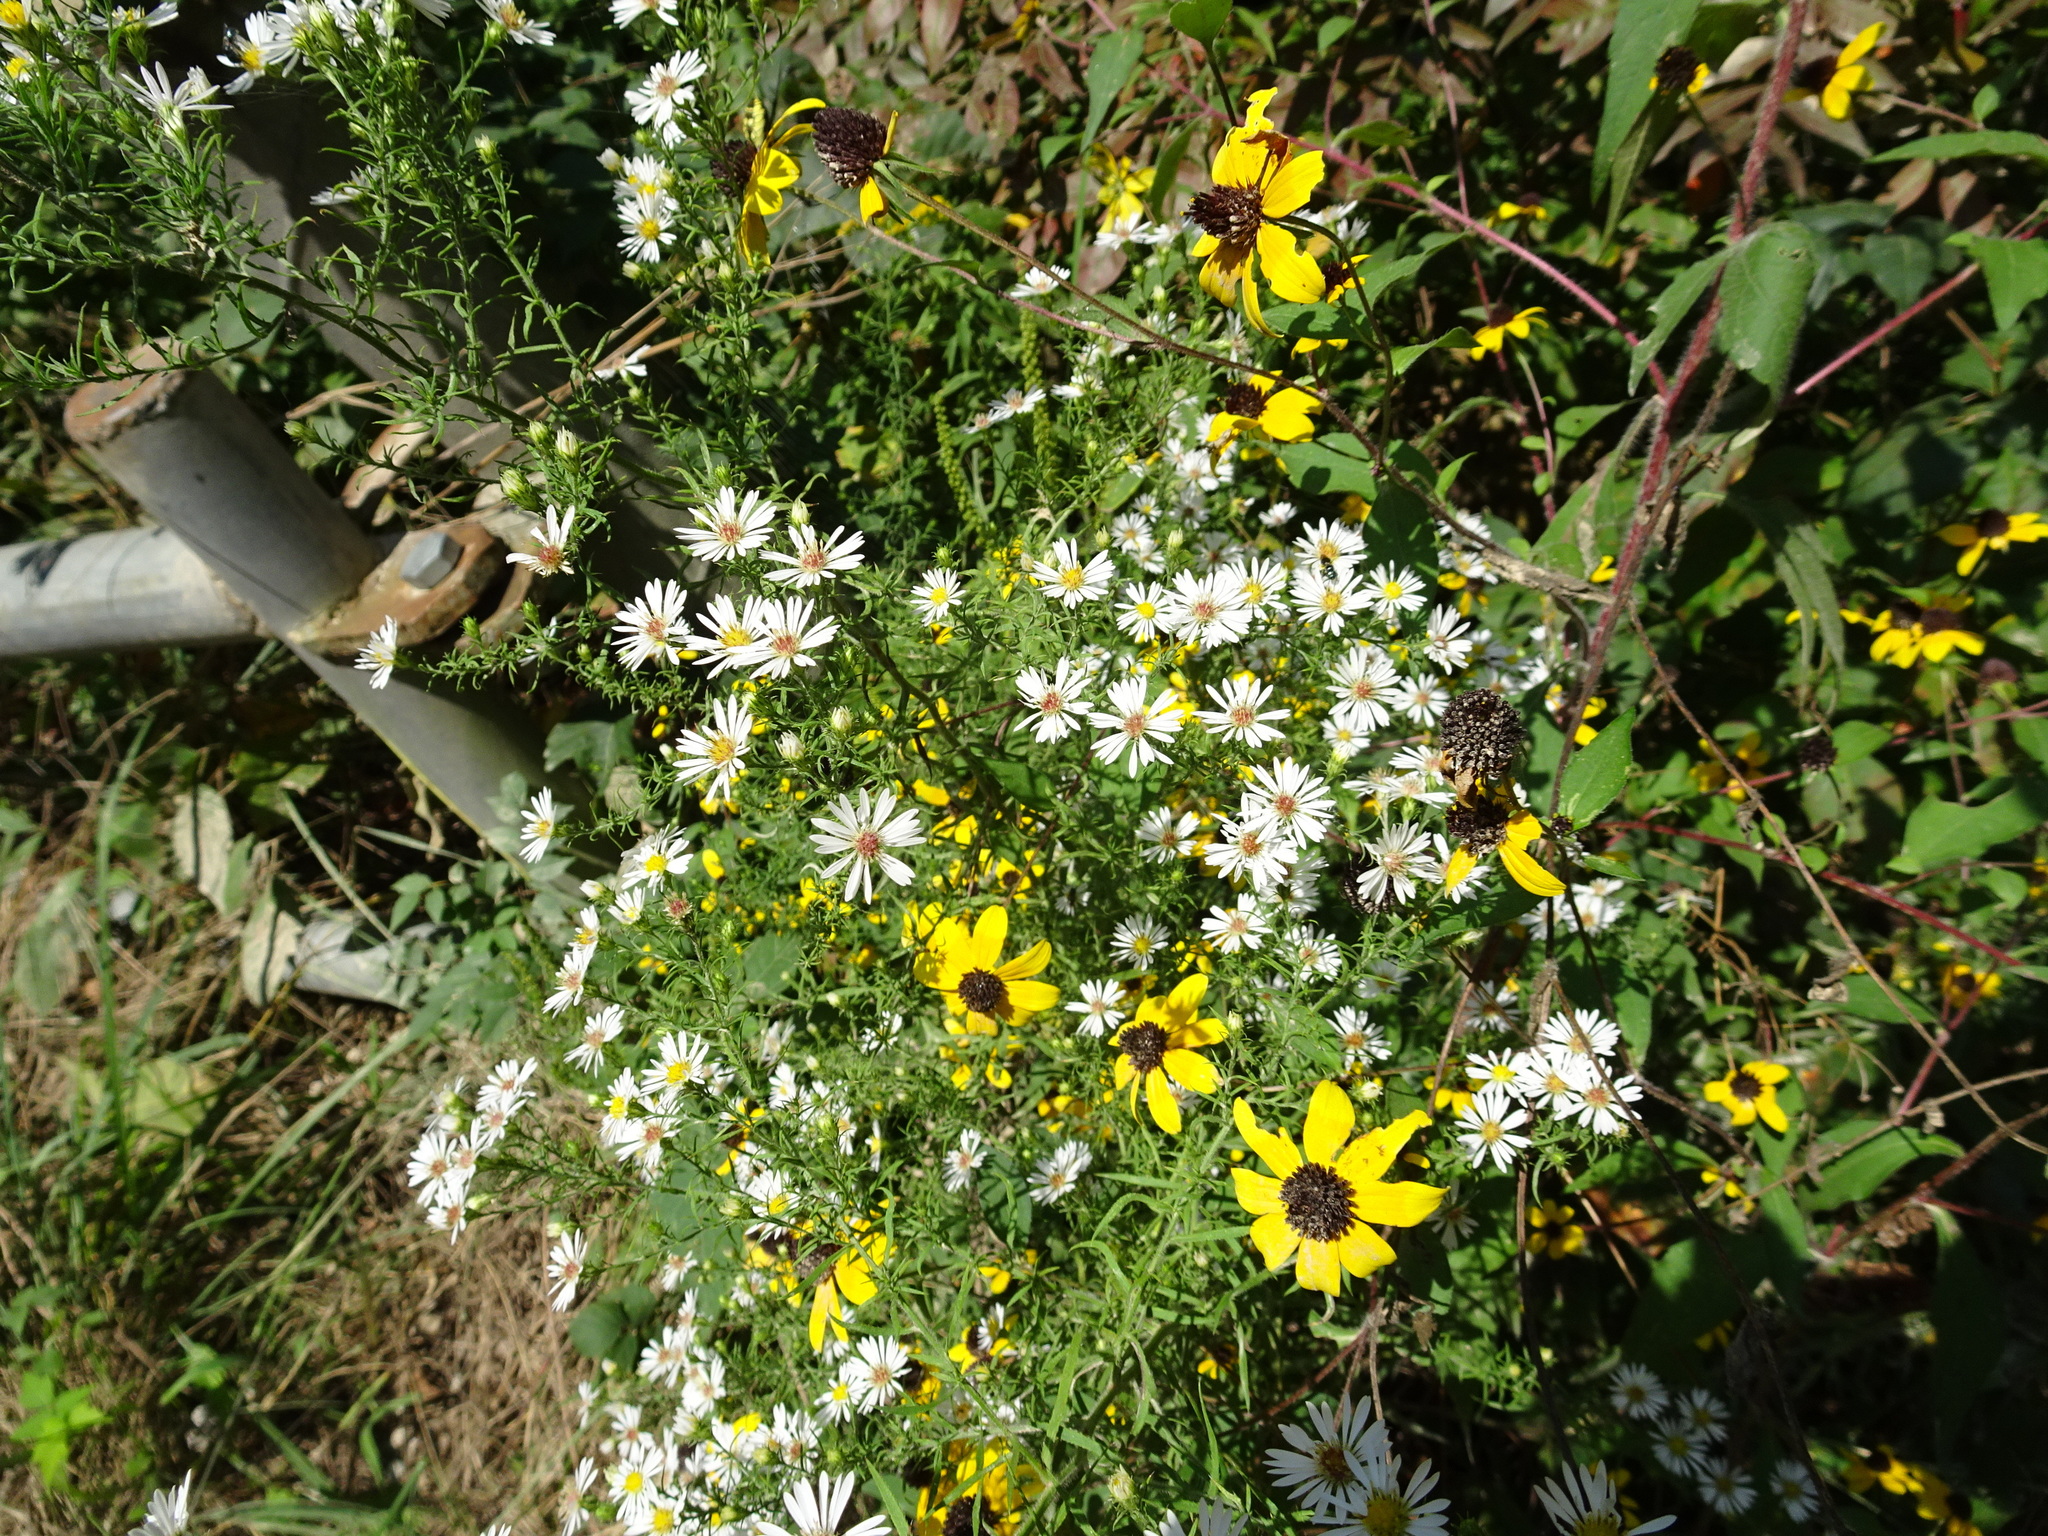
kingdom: Plantae
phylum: Tracheophyta
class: Magnoliopsida
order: Asterales
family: Asteraceae
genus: Symphyotrichum
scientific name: Symphyotrichum pilosum
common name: Awl aster
